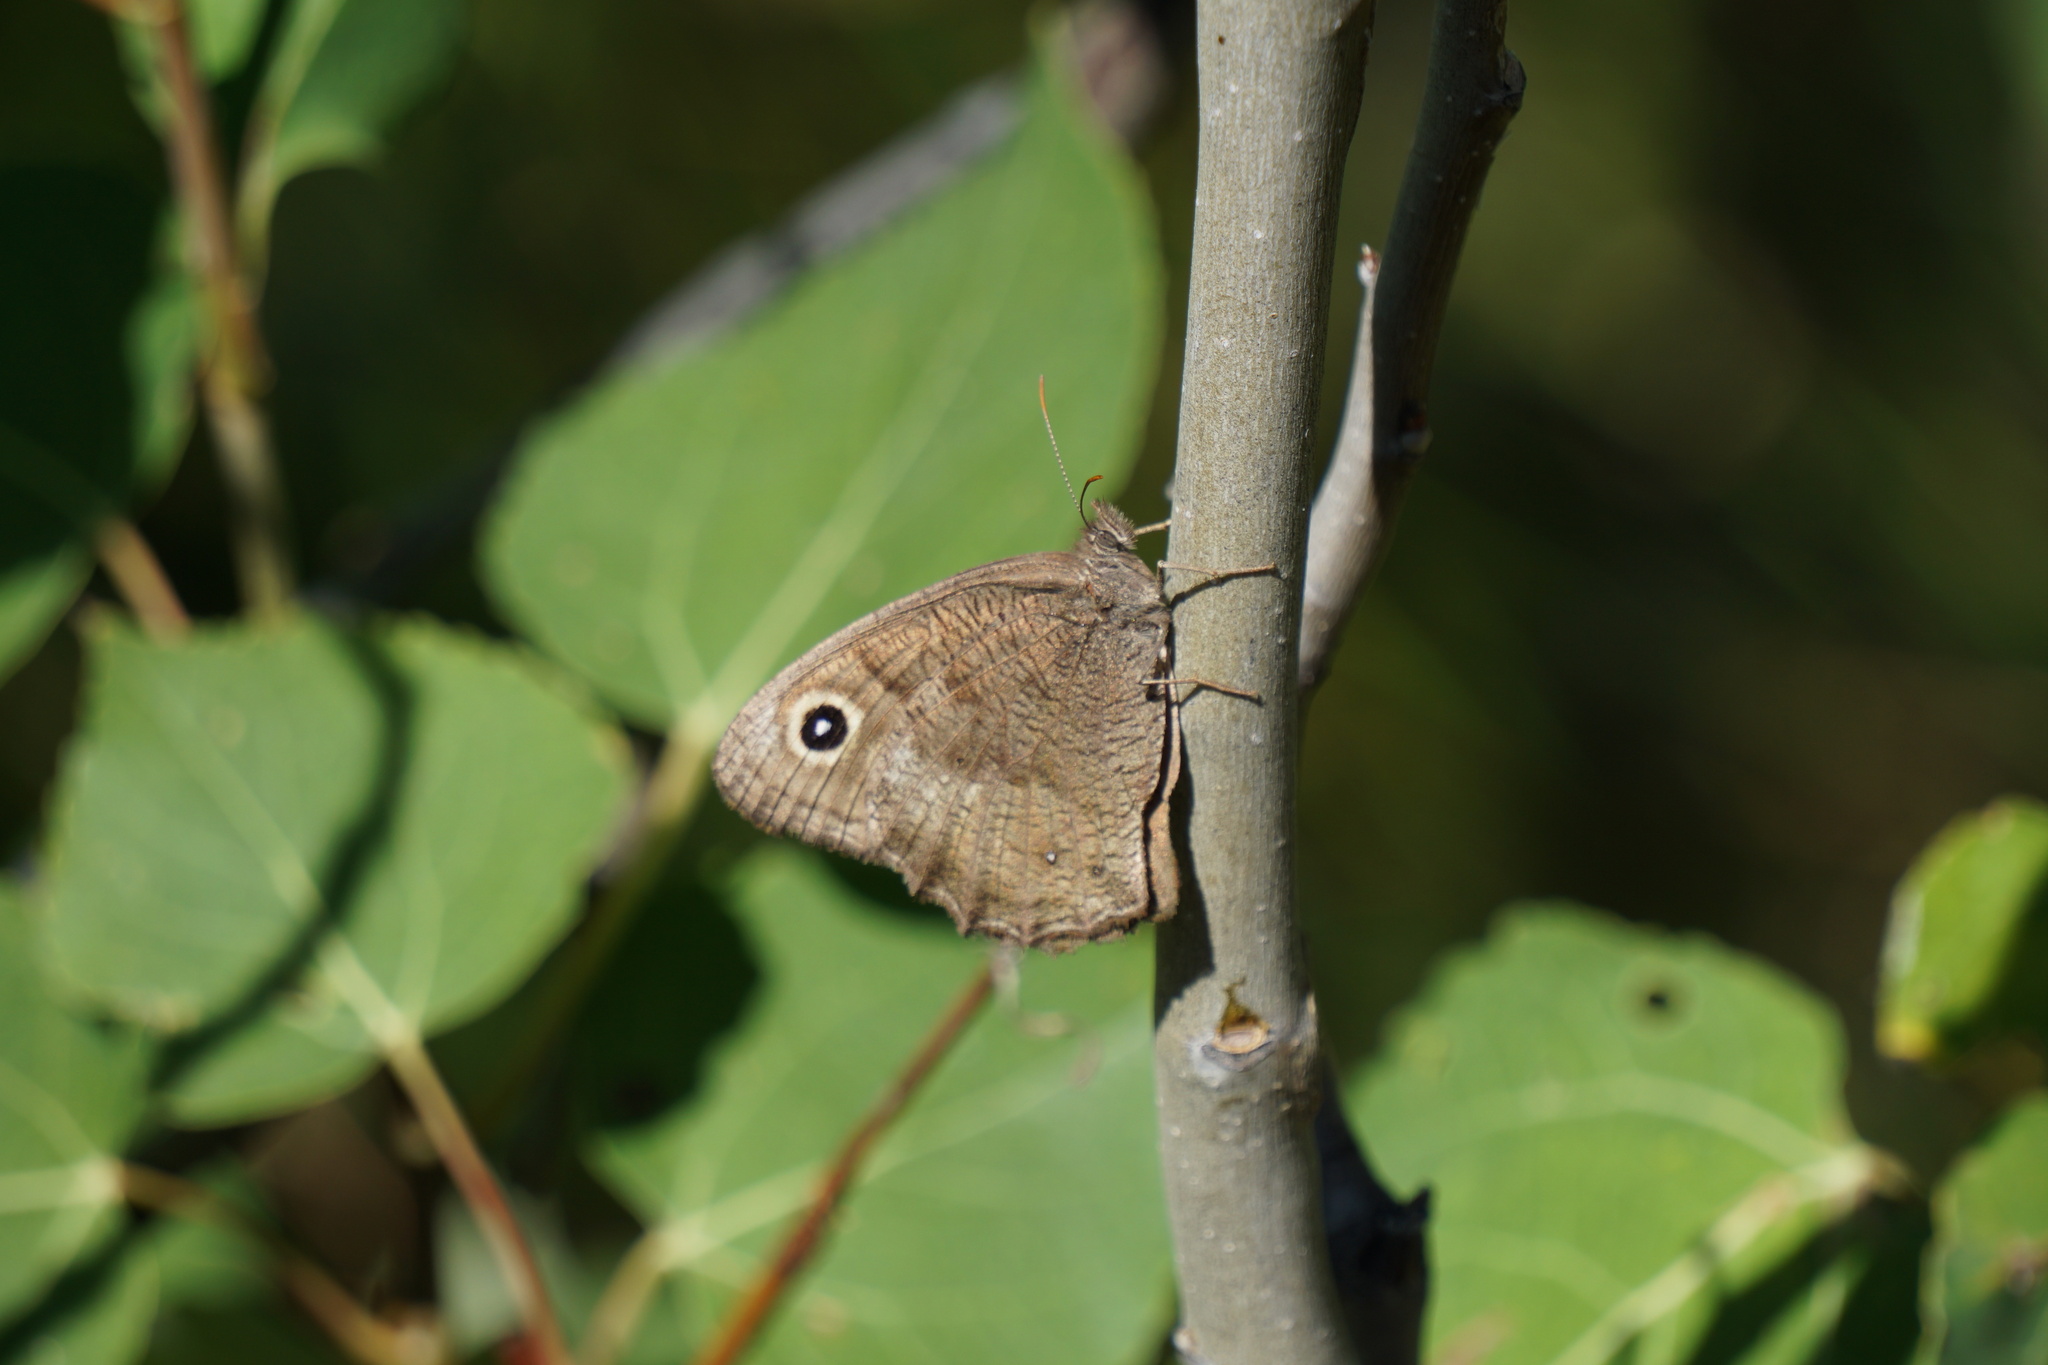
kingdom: Animalia
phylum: Arthropoda
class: Insecta
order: Lepidoptera
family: Nymphalidae
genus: Cercyonis
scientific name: Cercyonis pegala
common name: Common wood-nymph
